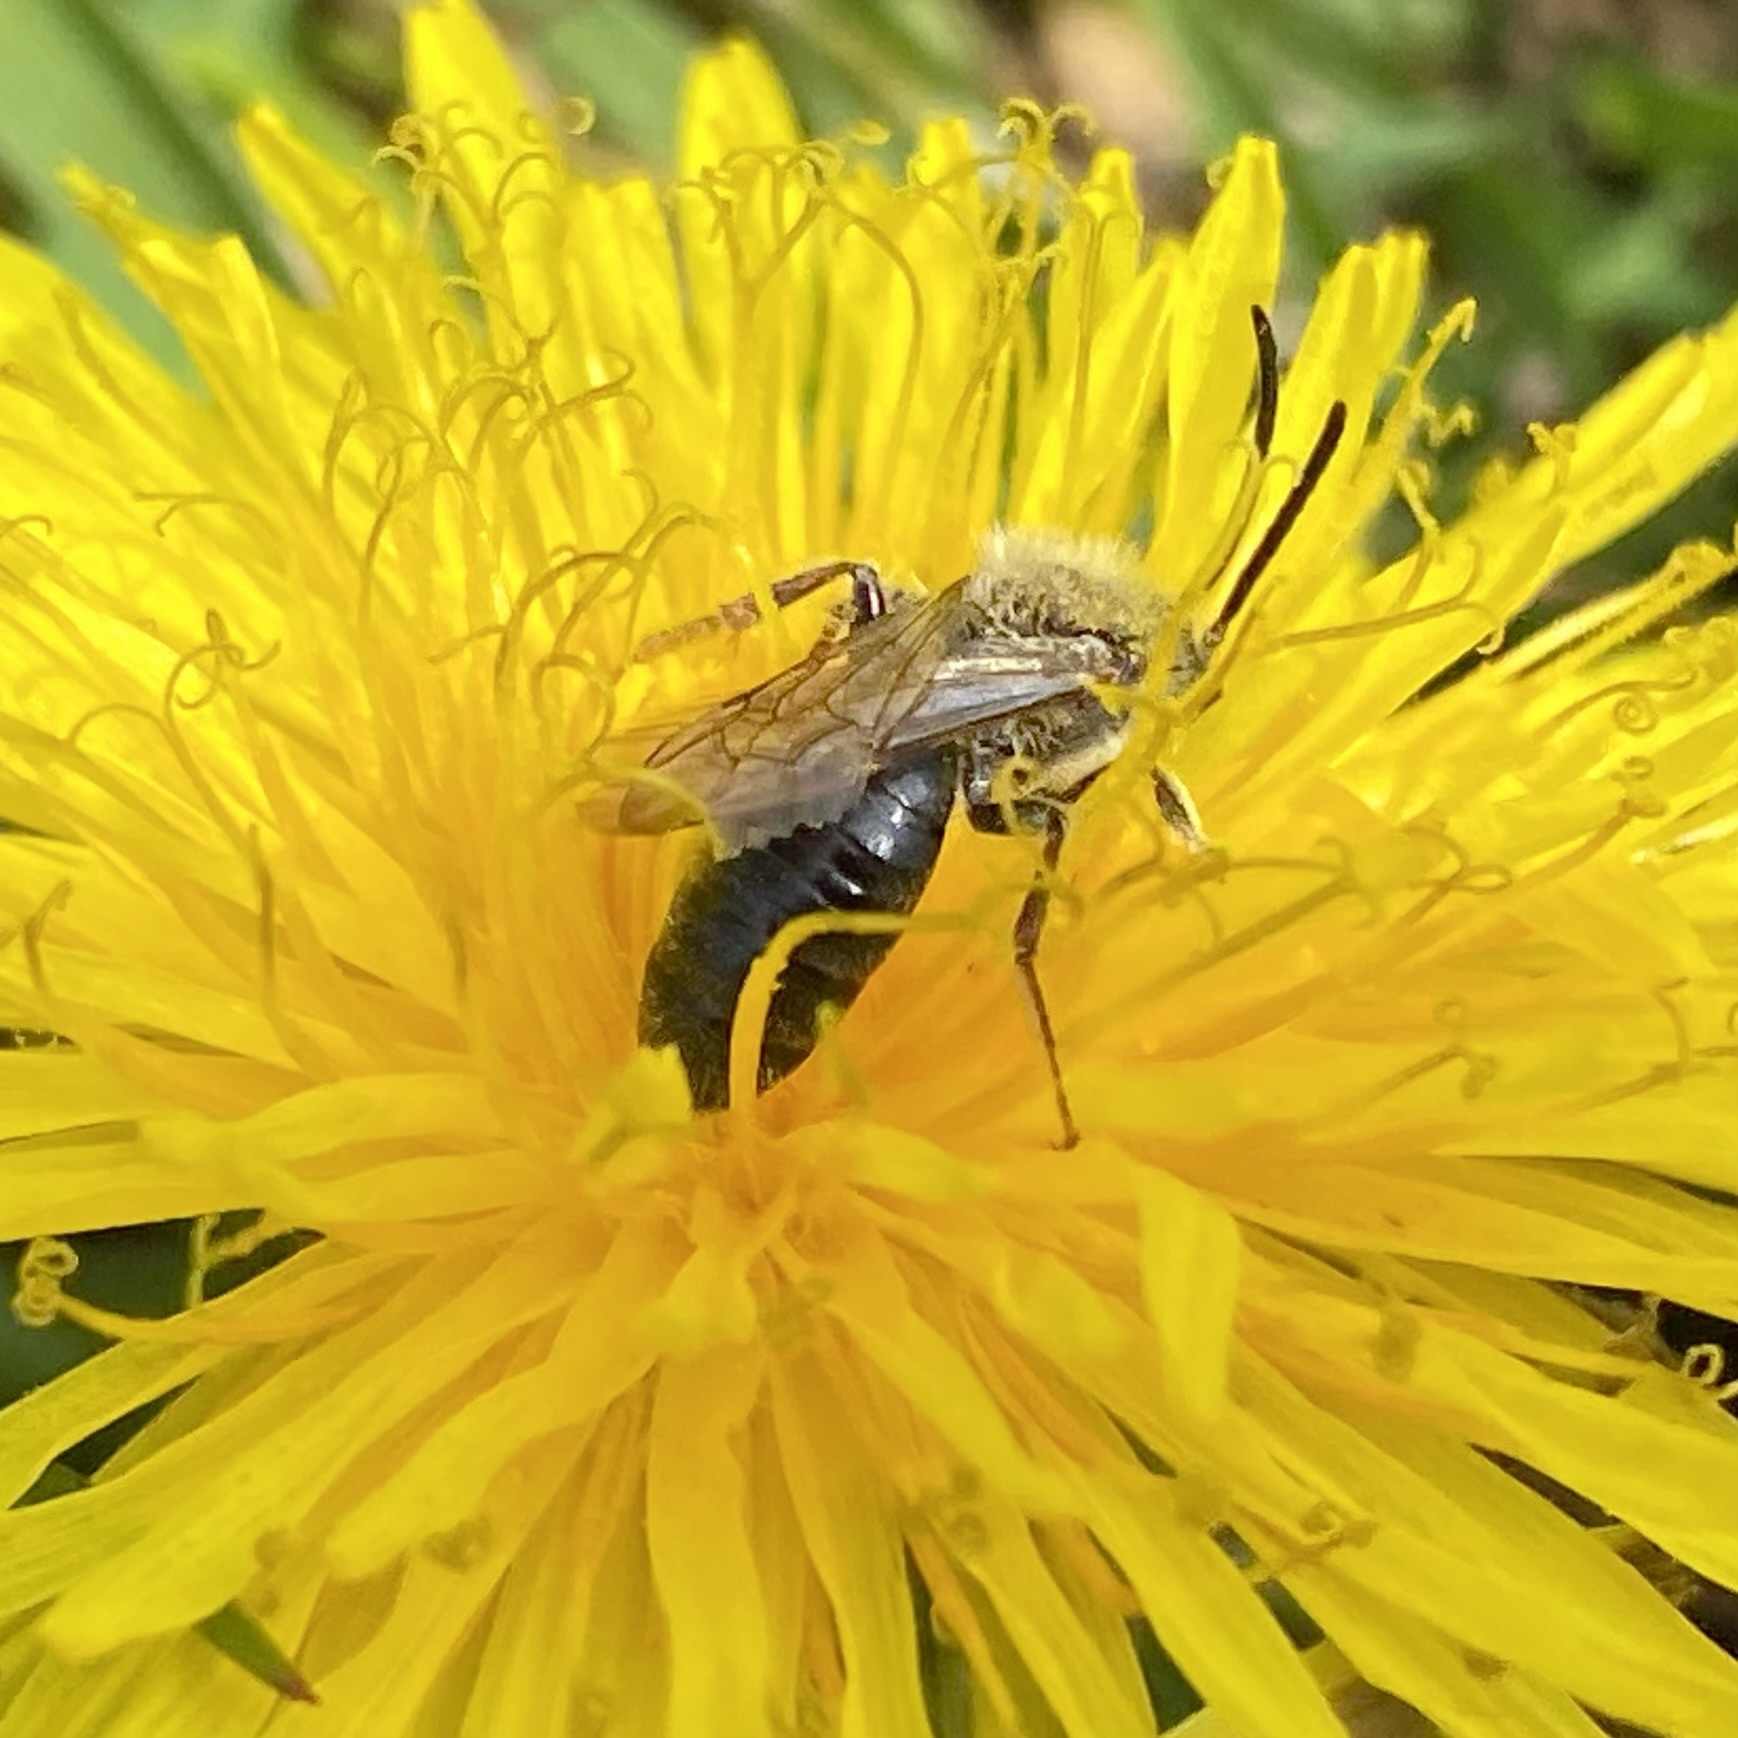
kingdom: Animalia
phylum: Arthropoda
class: Insecta
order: Hymenoptera
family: Andrenidae
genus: Andrena
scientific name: Andrena
